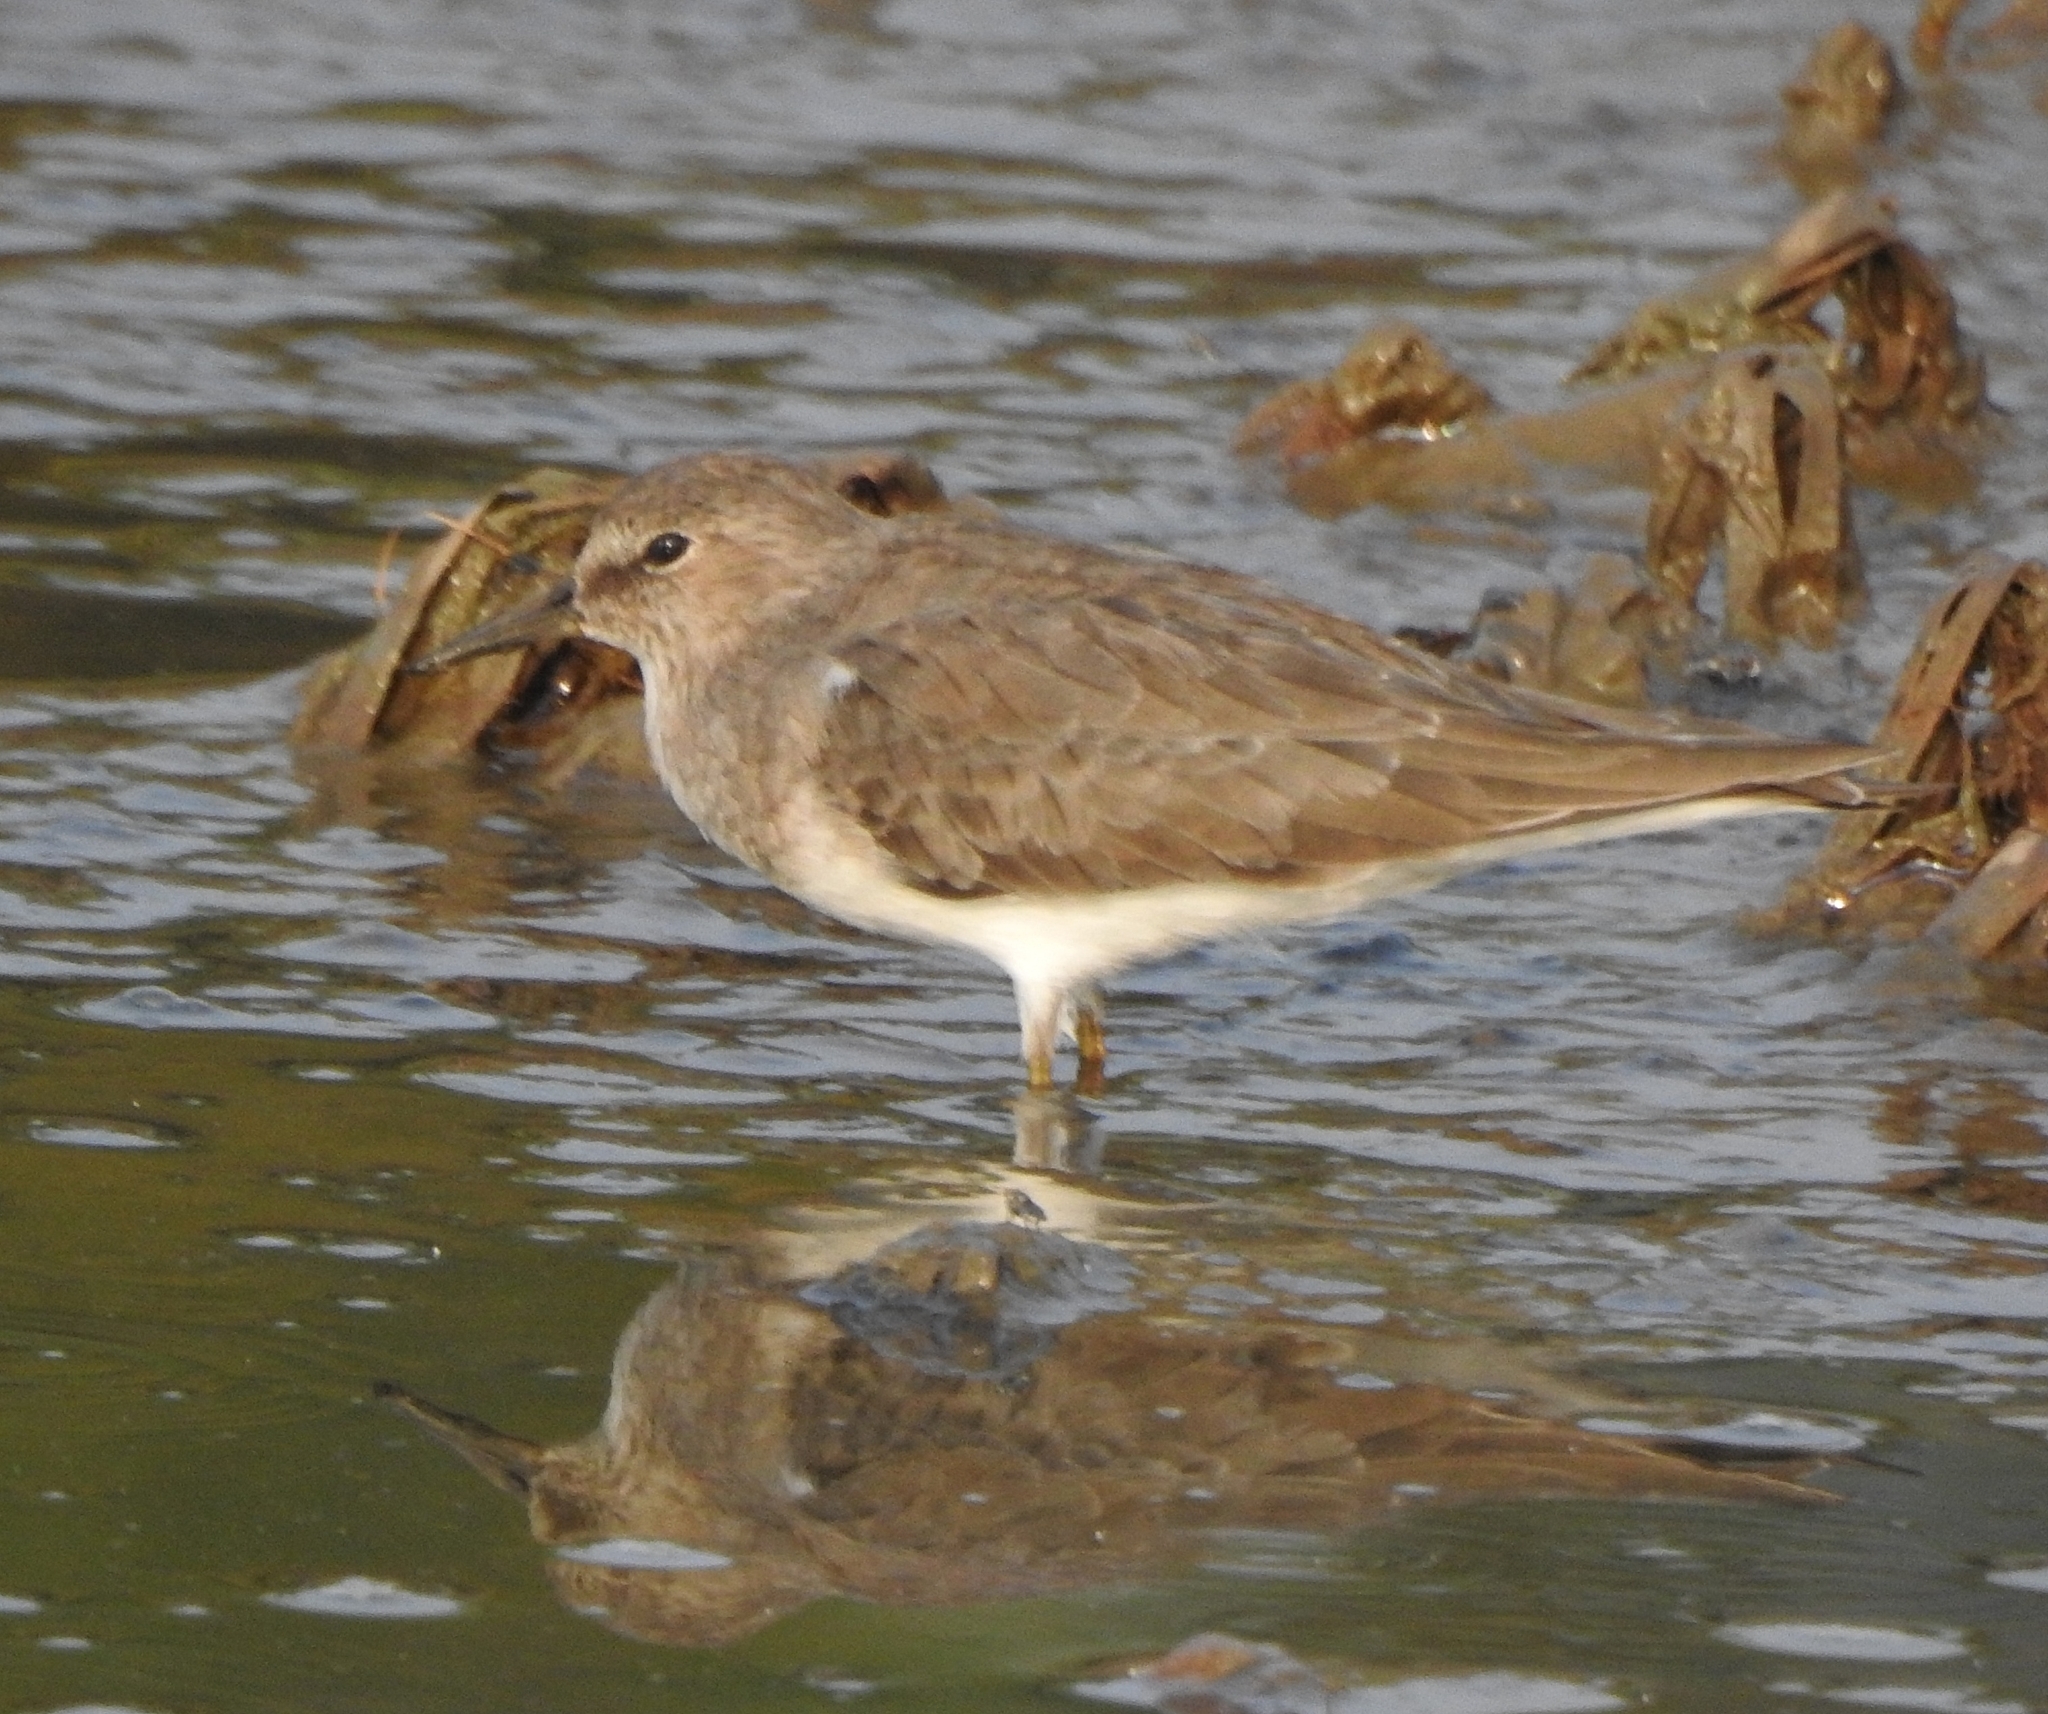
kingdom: Animalia
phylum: Chordata
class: Aves
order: Charadriiformes
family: Scolopacidae
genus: Calidris
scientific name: Calidris temminckii
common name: Temminck's stint
